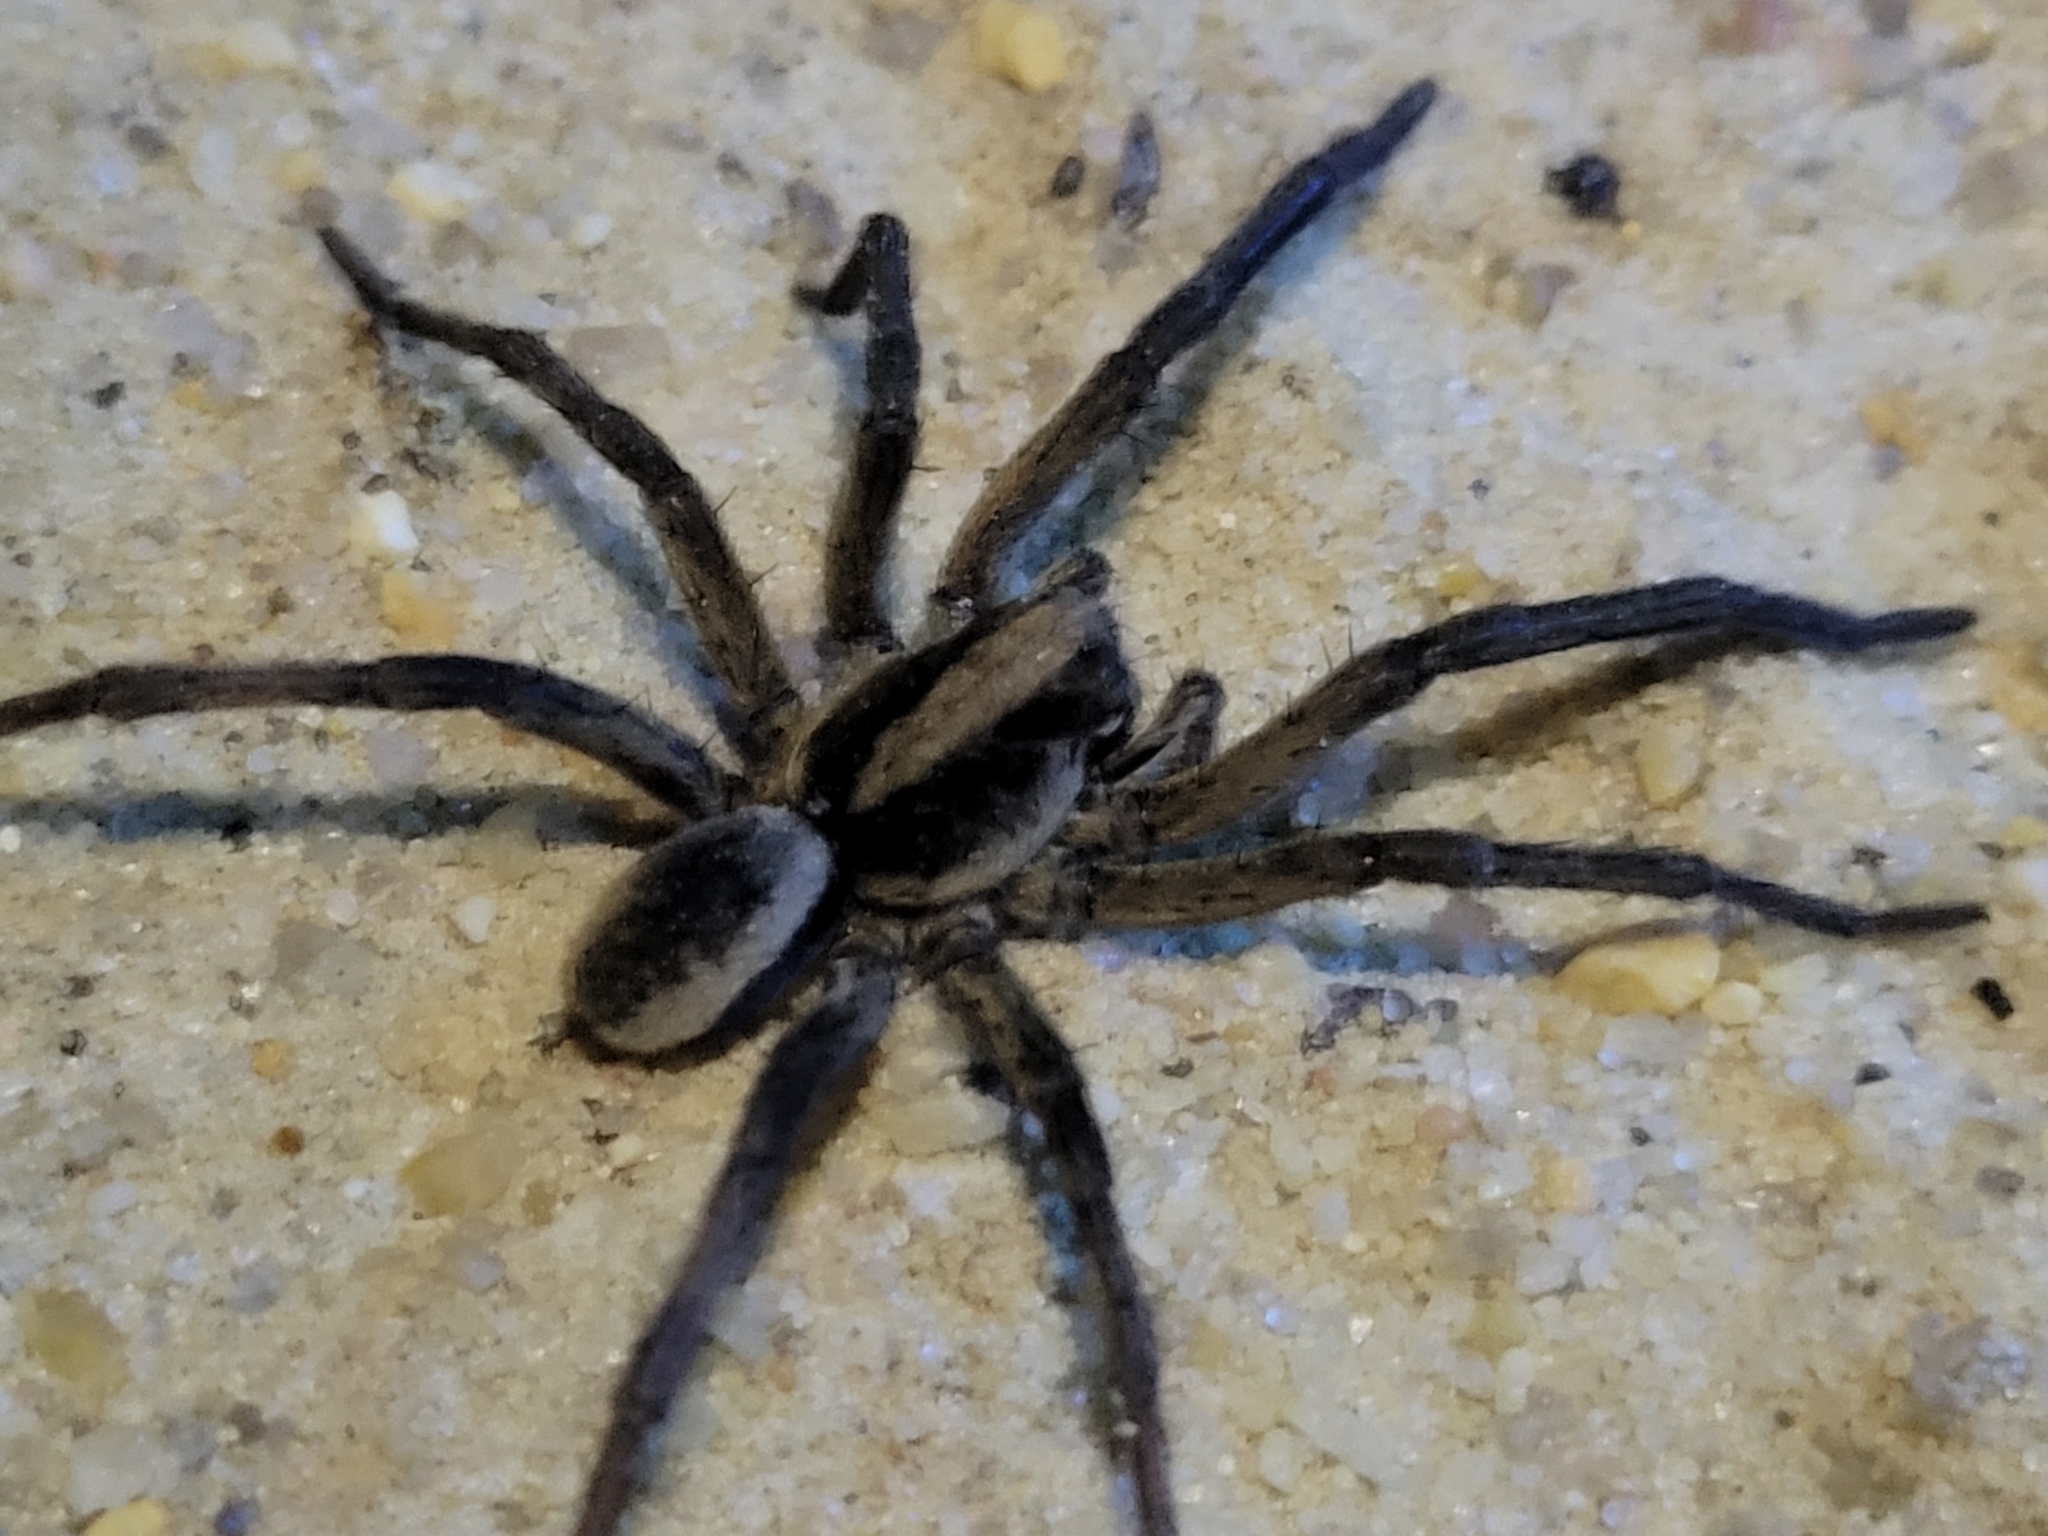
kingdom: Animalia
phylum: Arthropoda
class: Arachnida
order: Araneae
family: Lycosidae
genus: Geolycosa
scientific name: Geolycosa turricola
